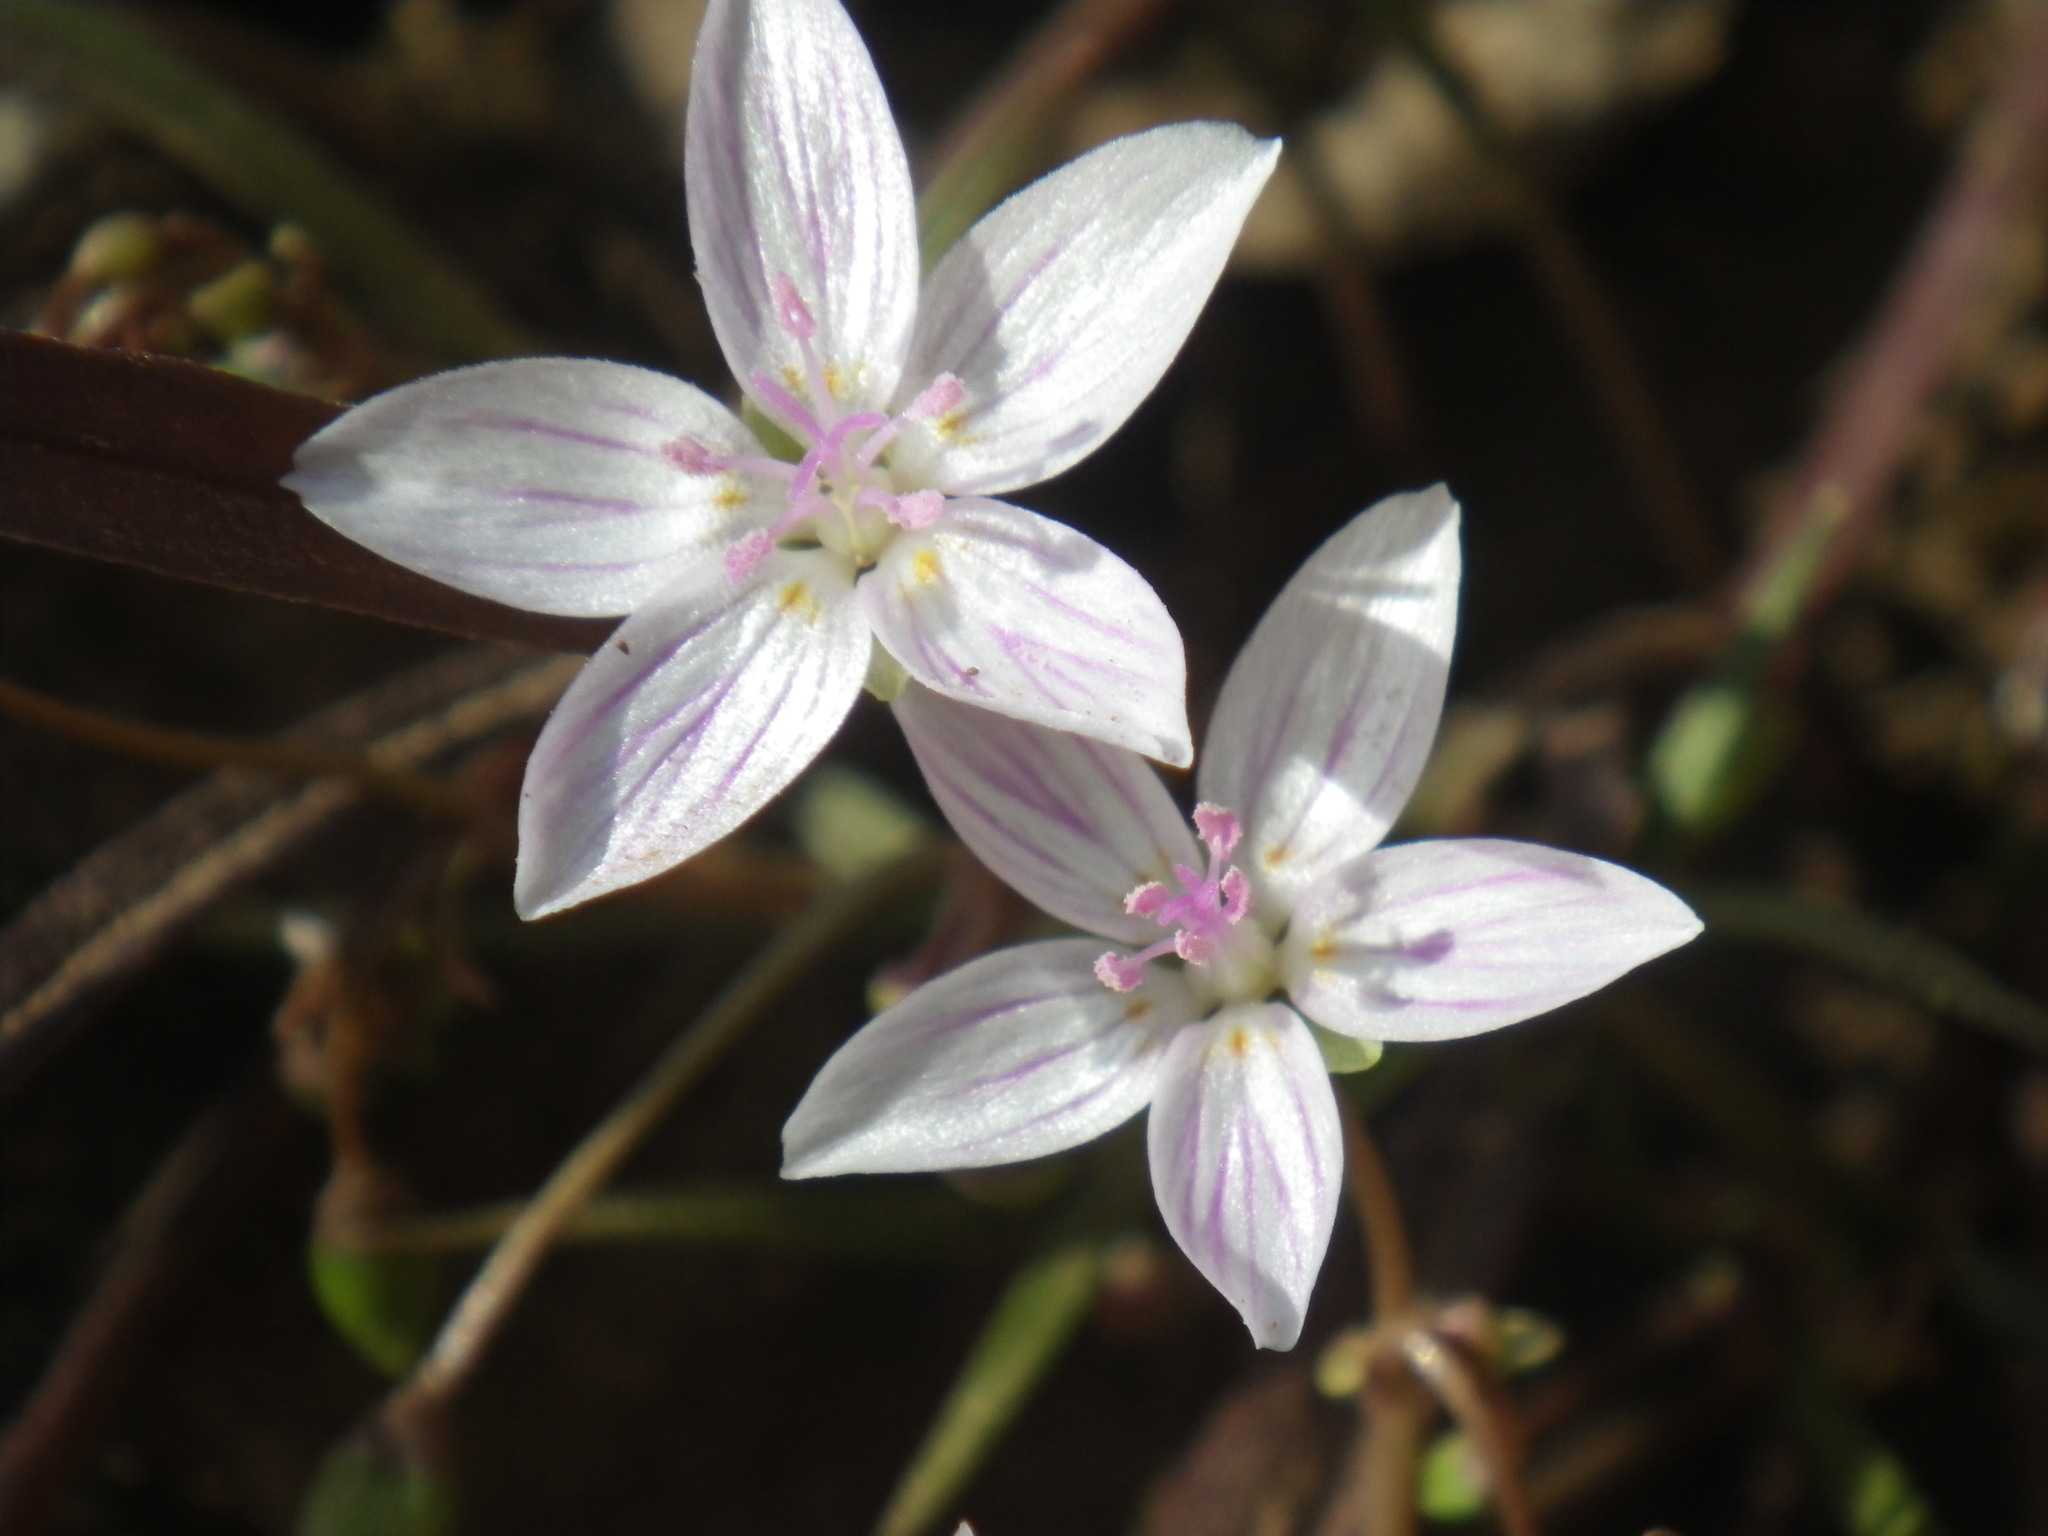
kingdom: Plantae
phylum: Tracheophyta
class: Magnoliopsida
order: Caryophyllales
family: Montiaceae
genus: Claytonia
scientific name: Claytonia virginica
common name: Virginia springbeauty
